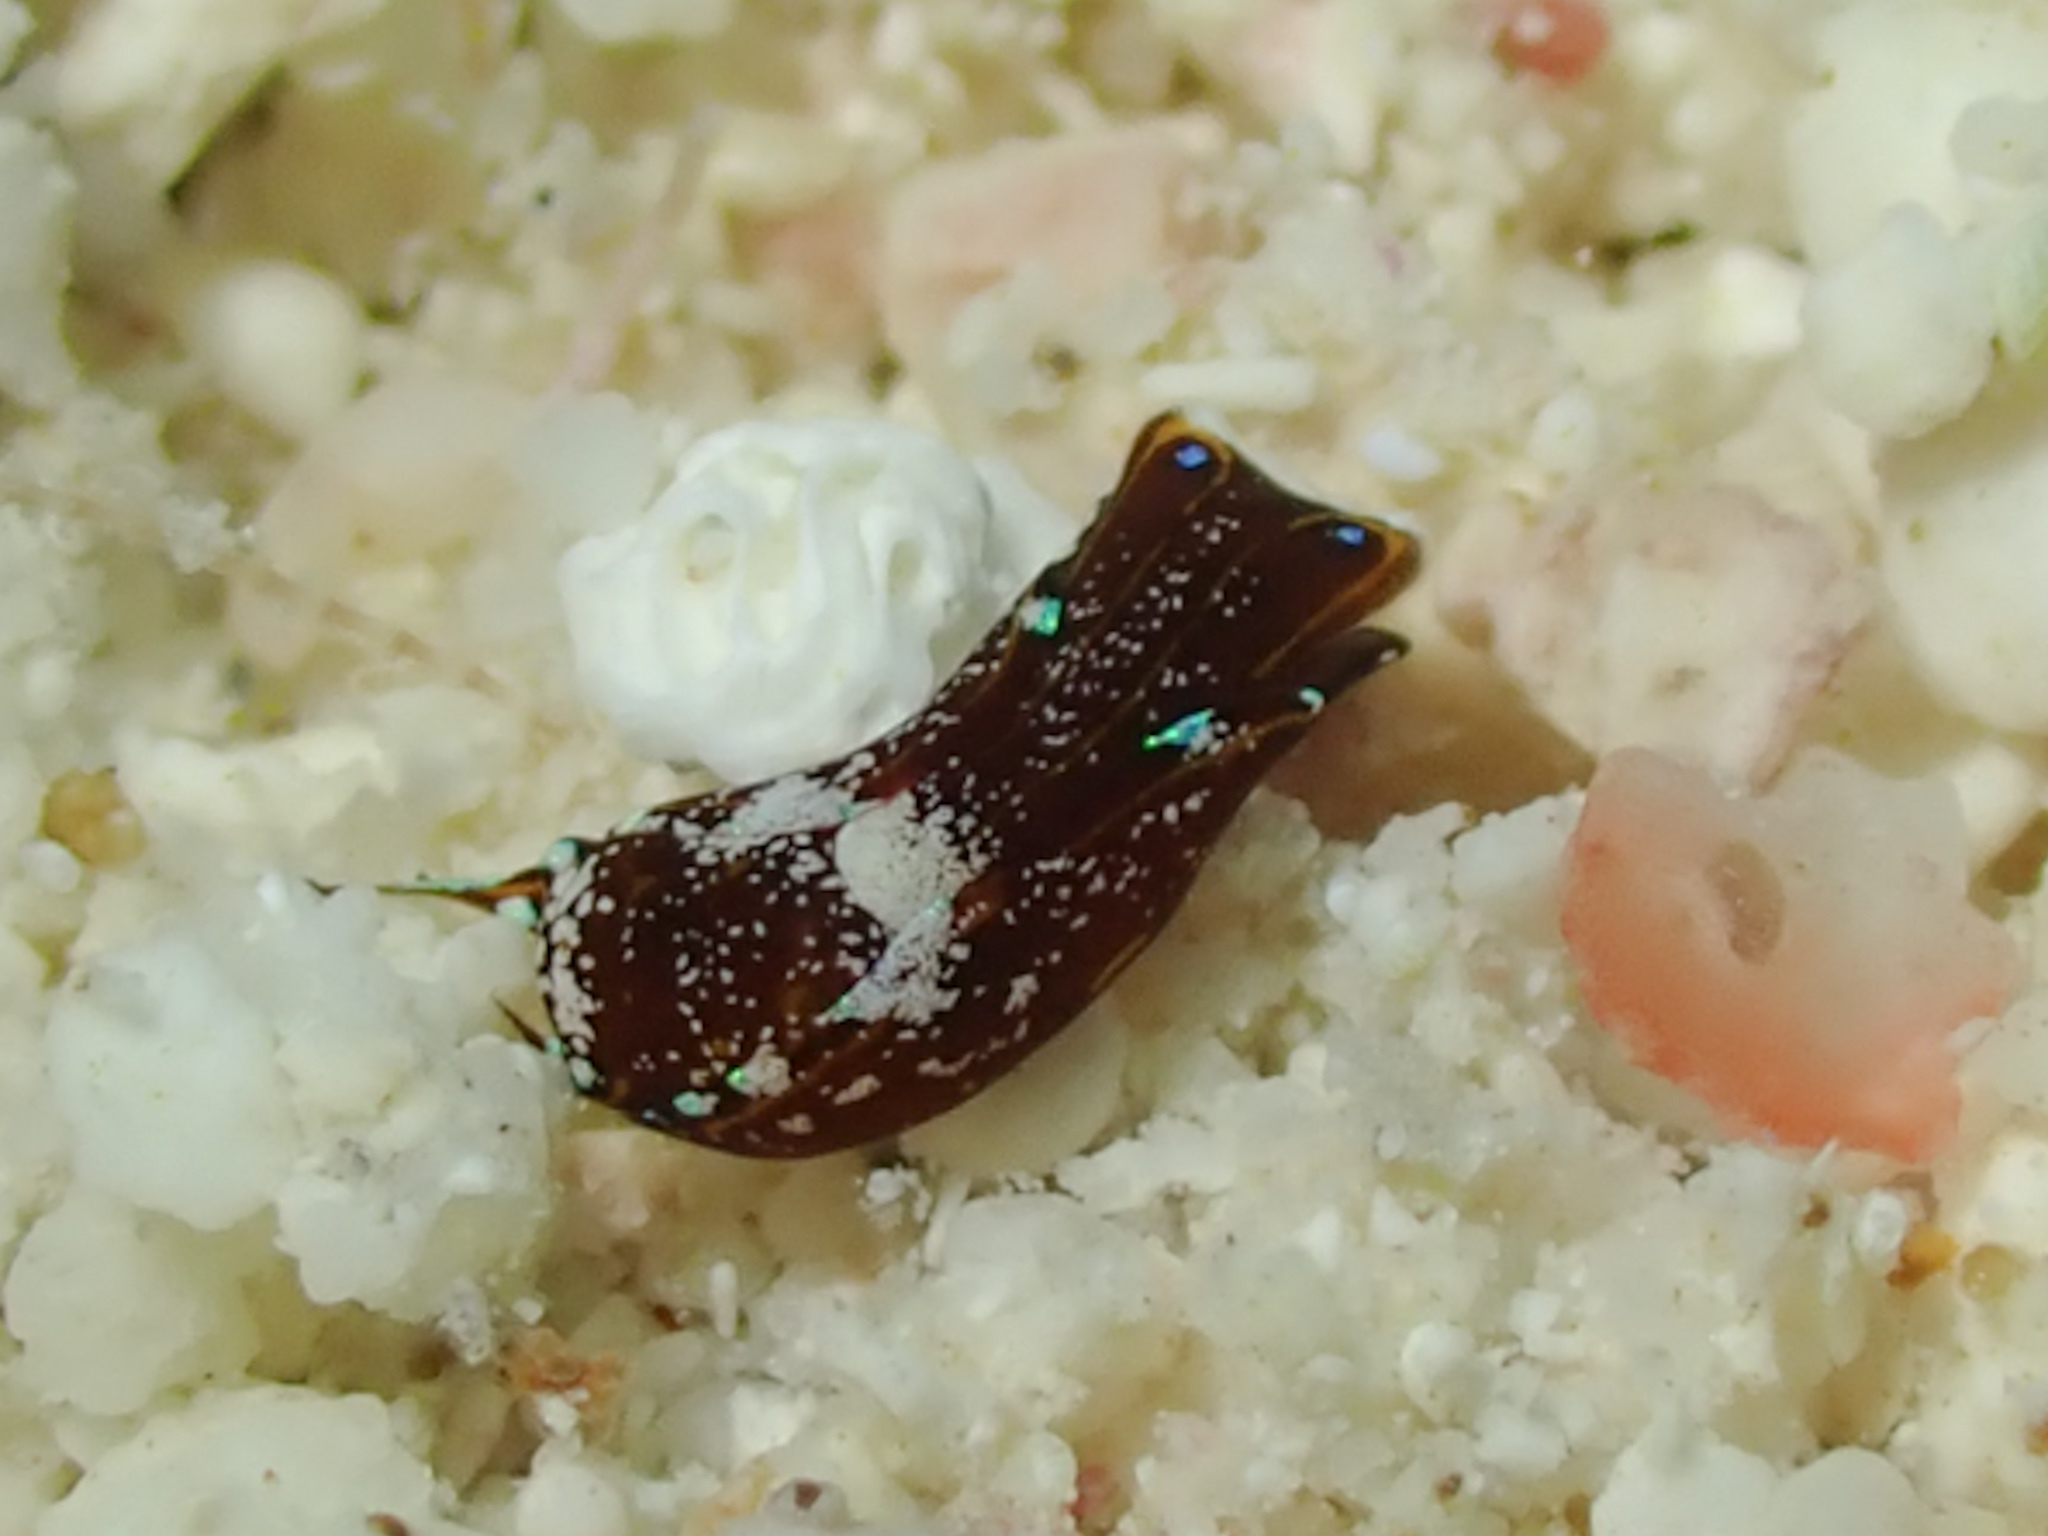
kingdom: Animalia
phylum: Mollusca
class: Gastropoda
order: Cephalaspidea
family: Aglajidae
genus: Chelidonura
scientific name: Chelidonura cubana
